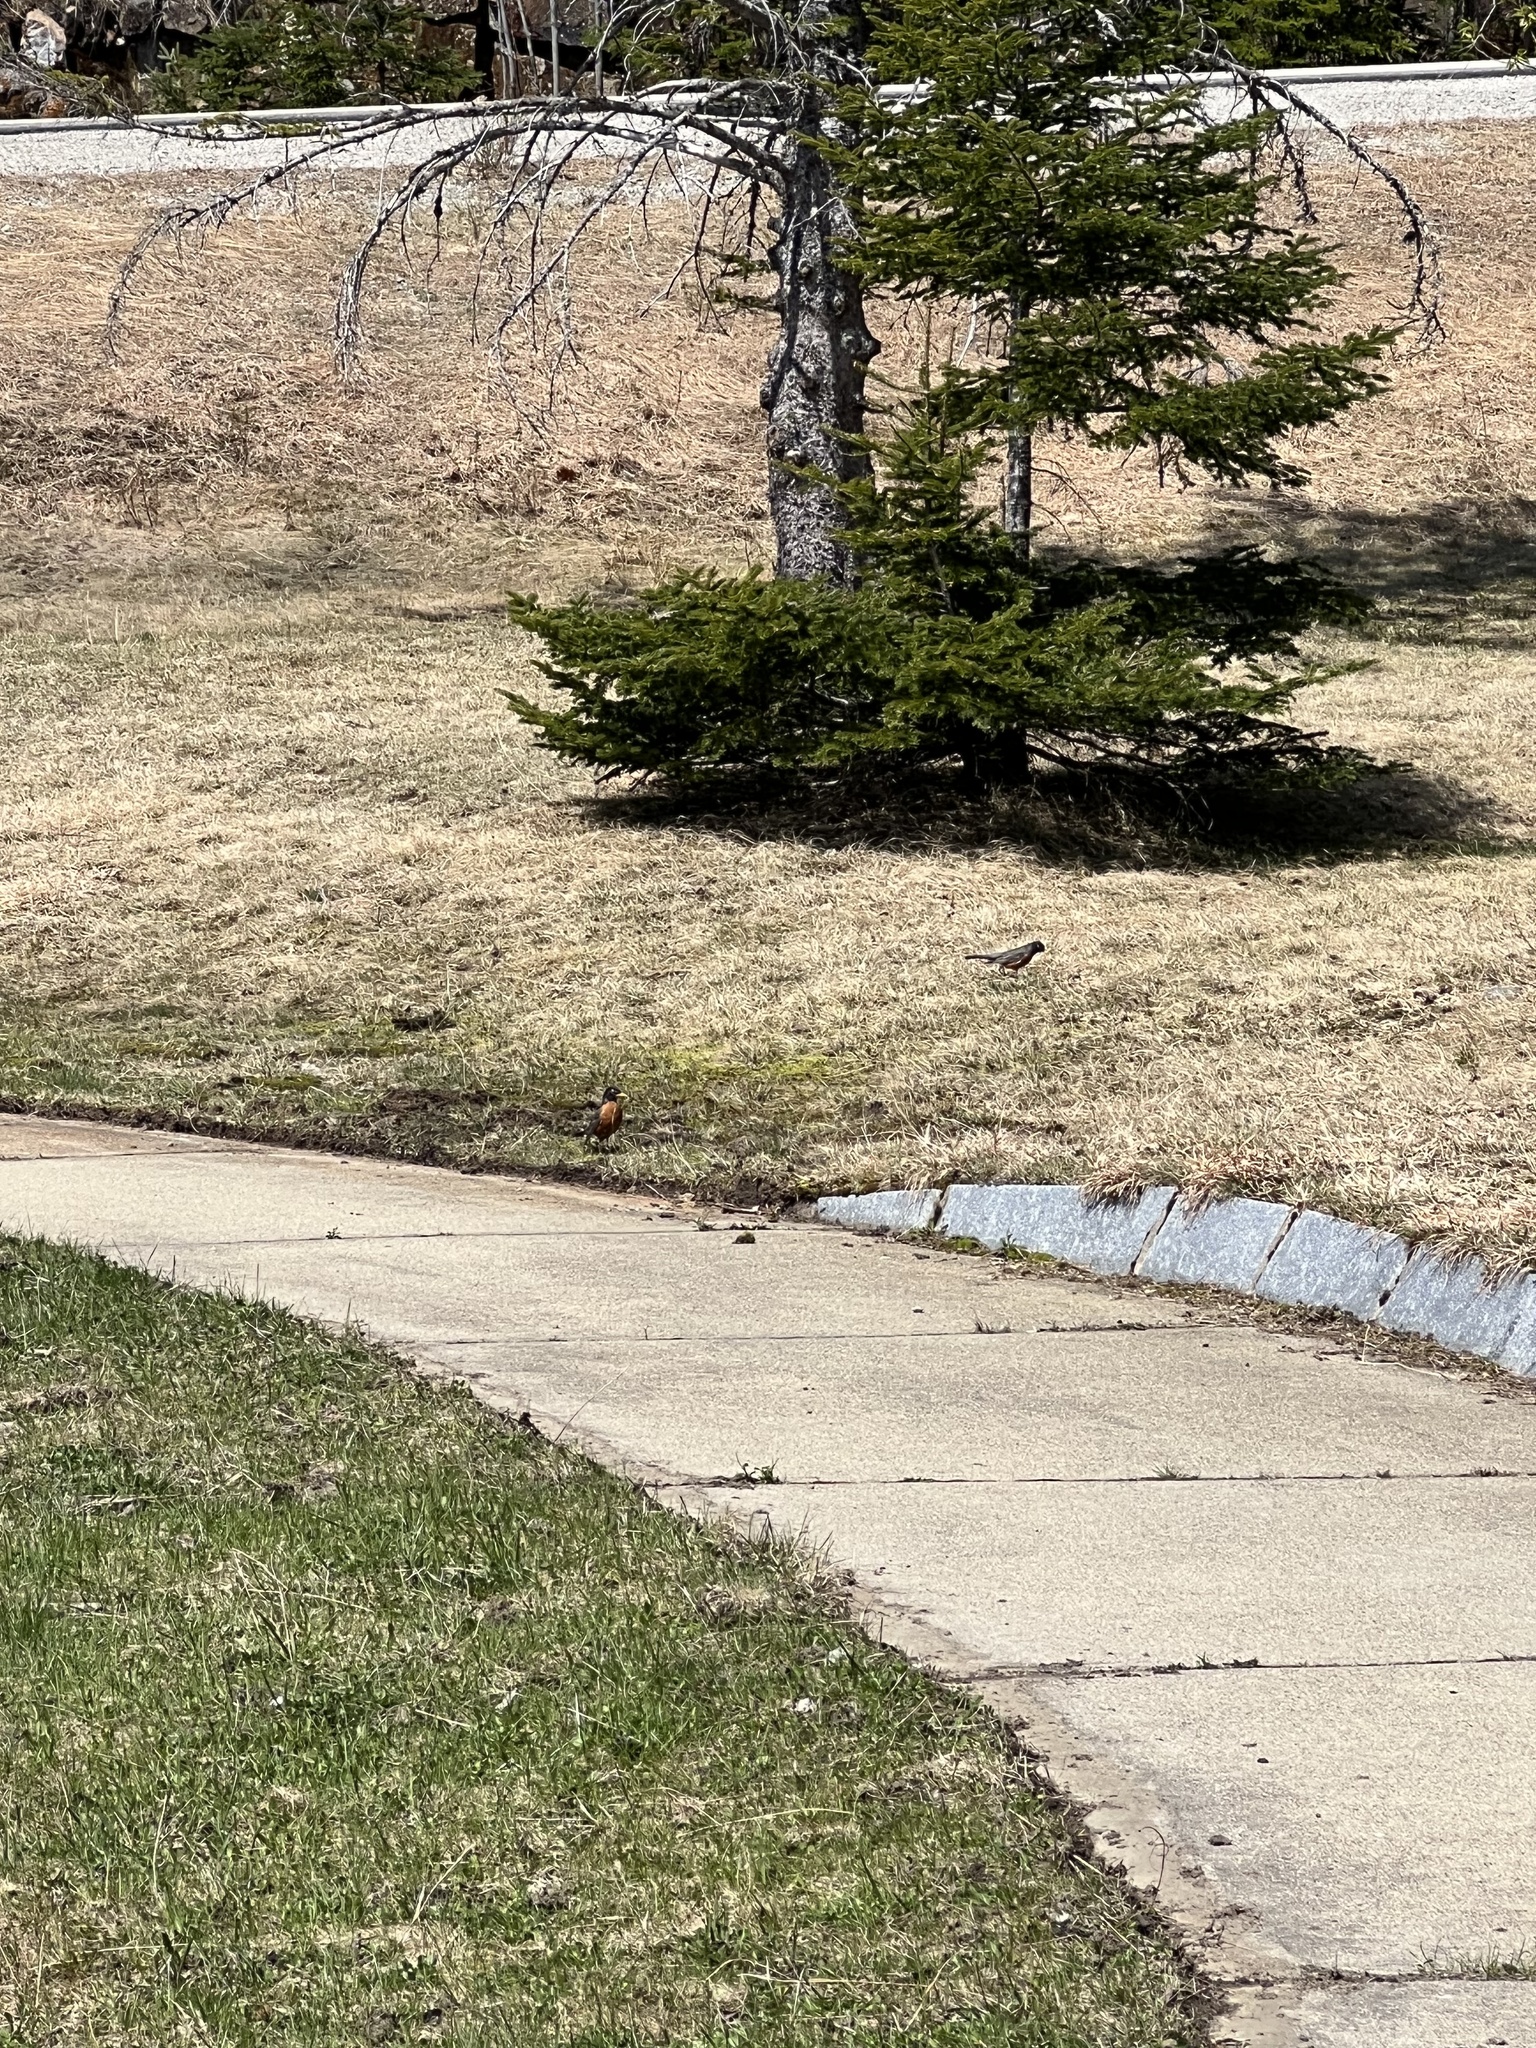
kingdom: Animalia
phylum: Chordata
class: Aves
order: Passeriformes
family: Turdidae
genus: Turdus
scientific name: Turdus migratorius
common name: American robin
